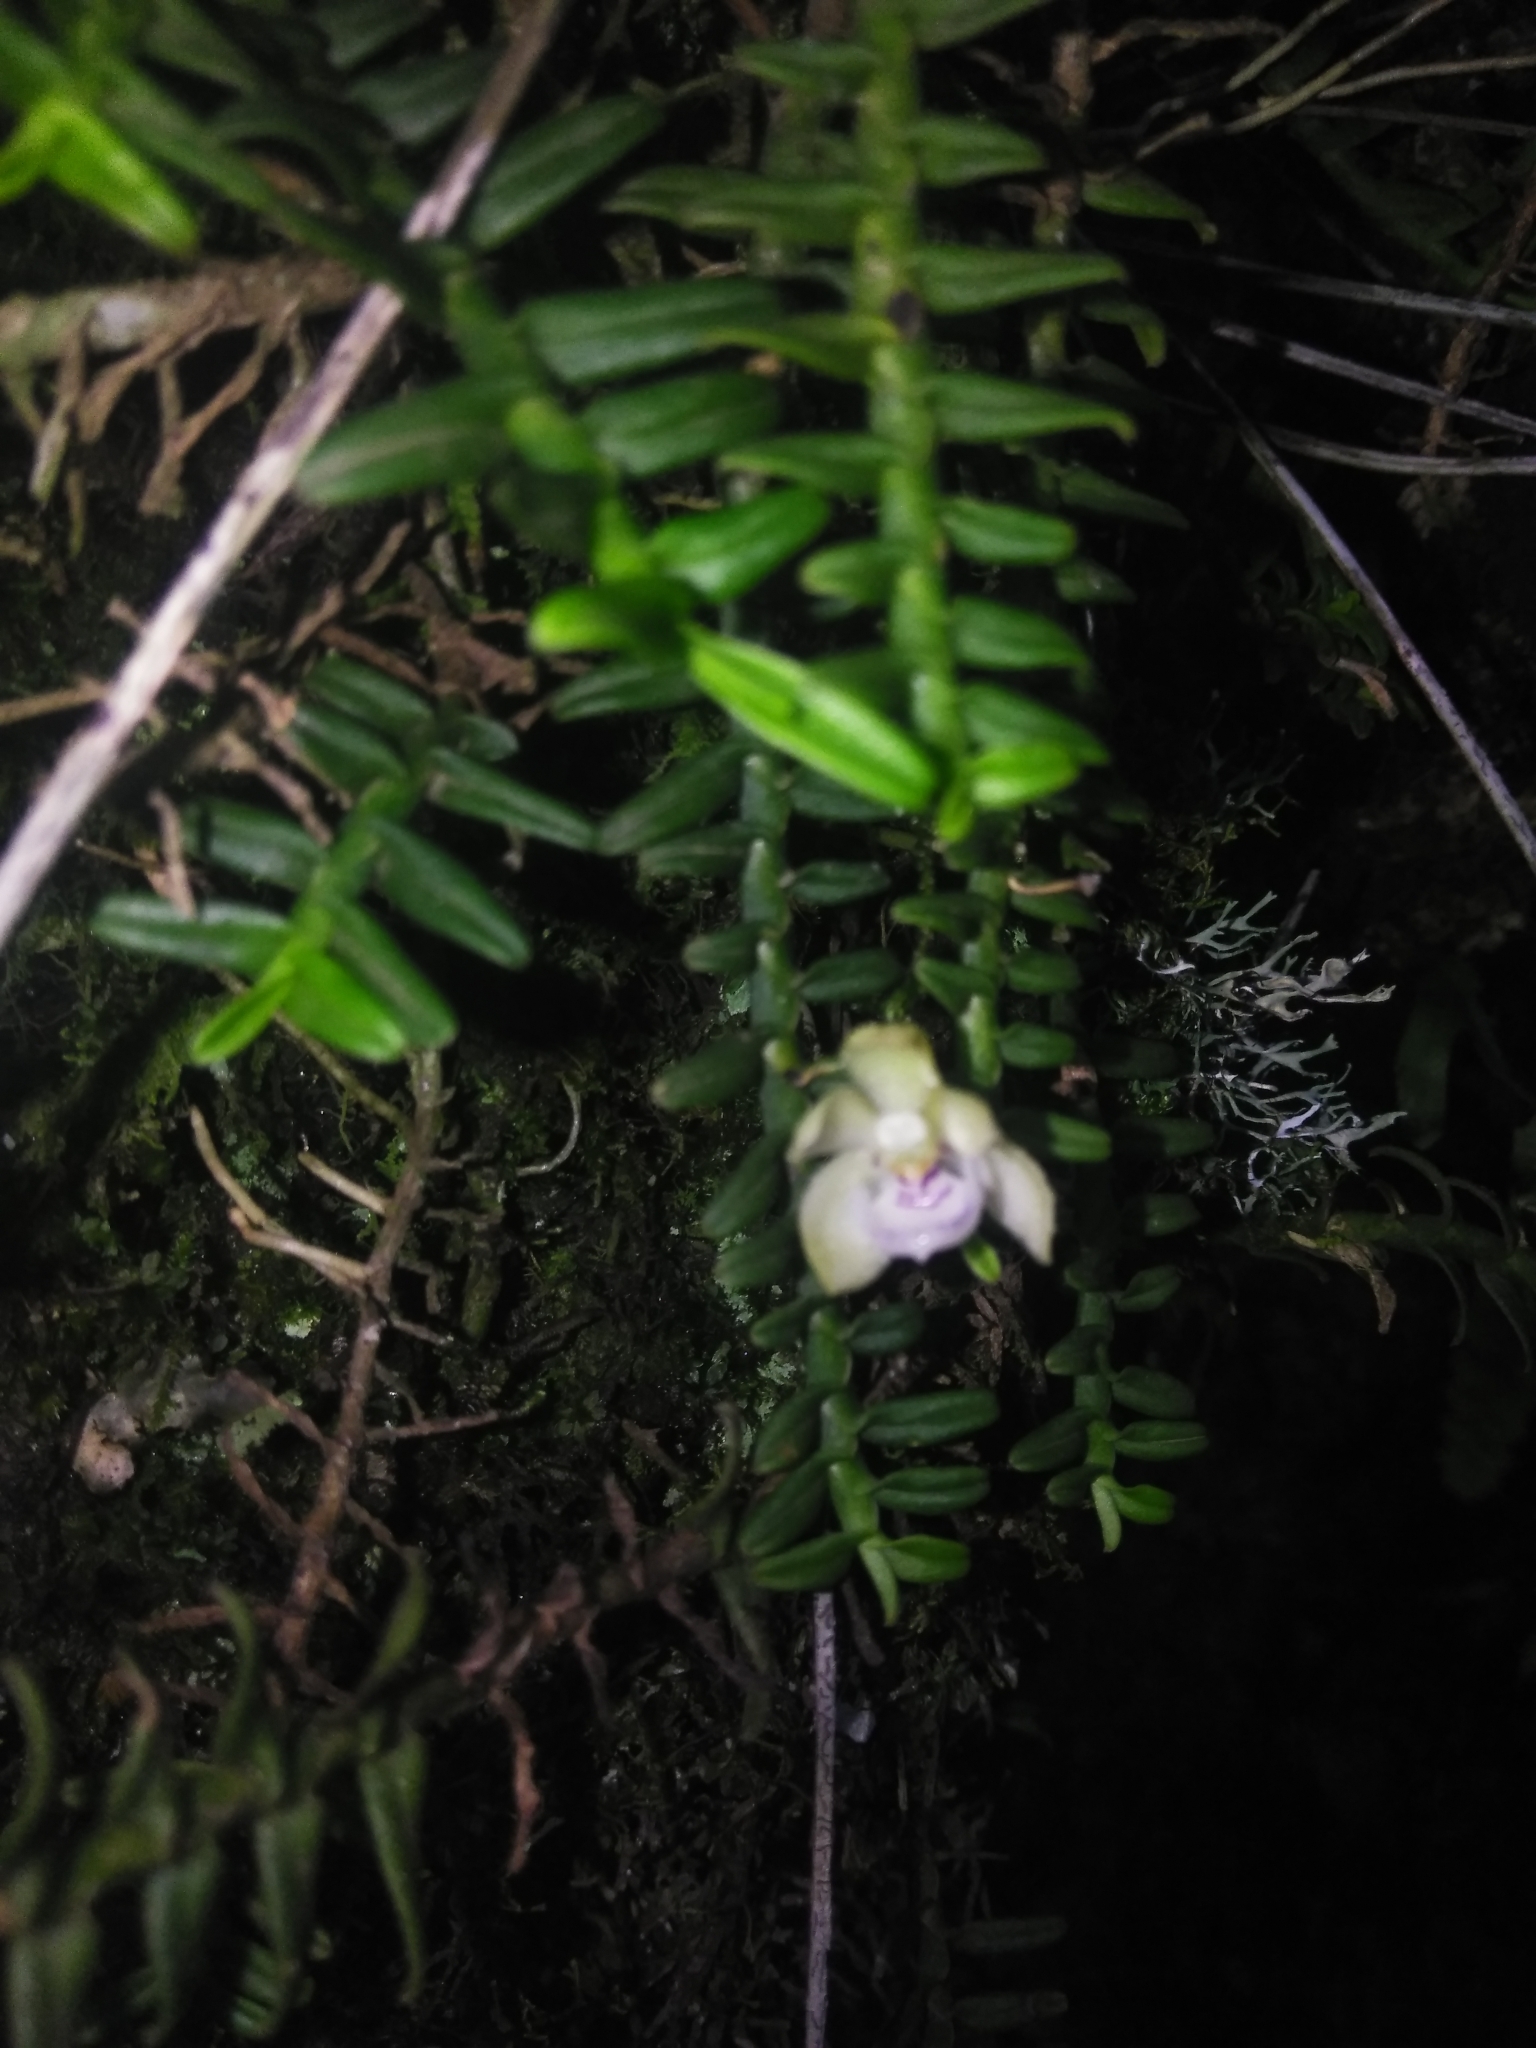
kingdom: Plantae
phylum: Tracheophyta
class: Liliopsida
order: Asparagales
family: Orchidaceae
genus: Dichaea
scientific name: Dichaea squarrosa
